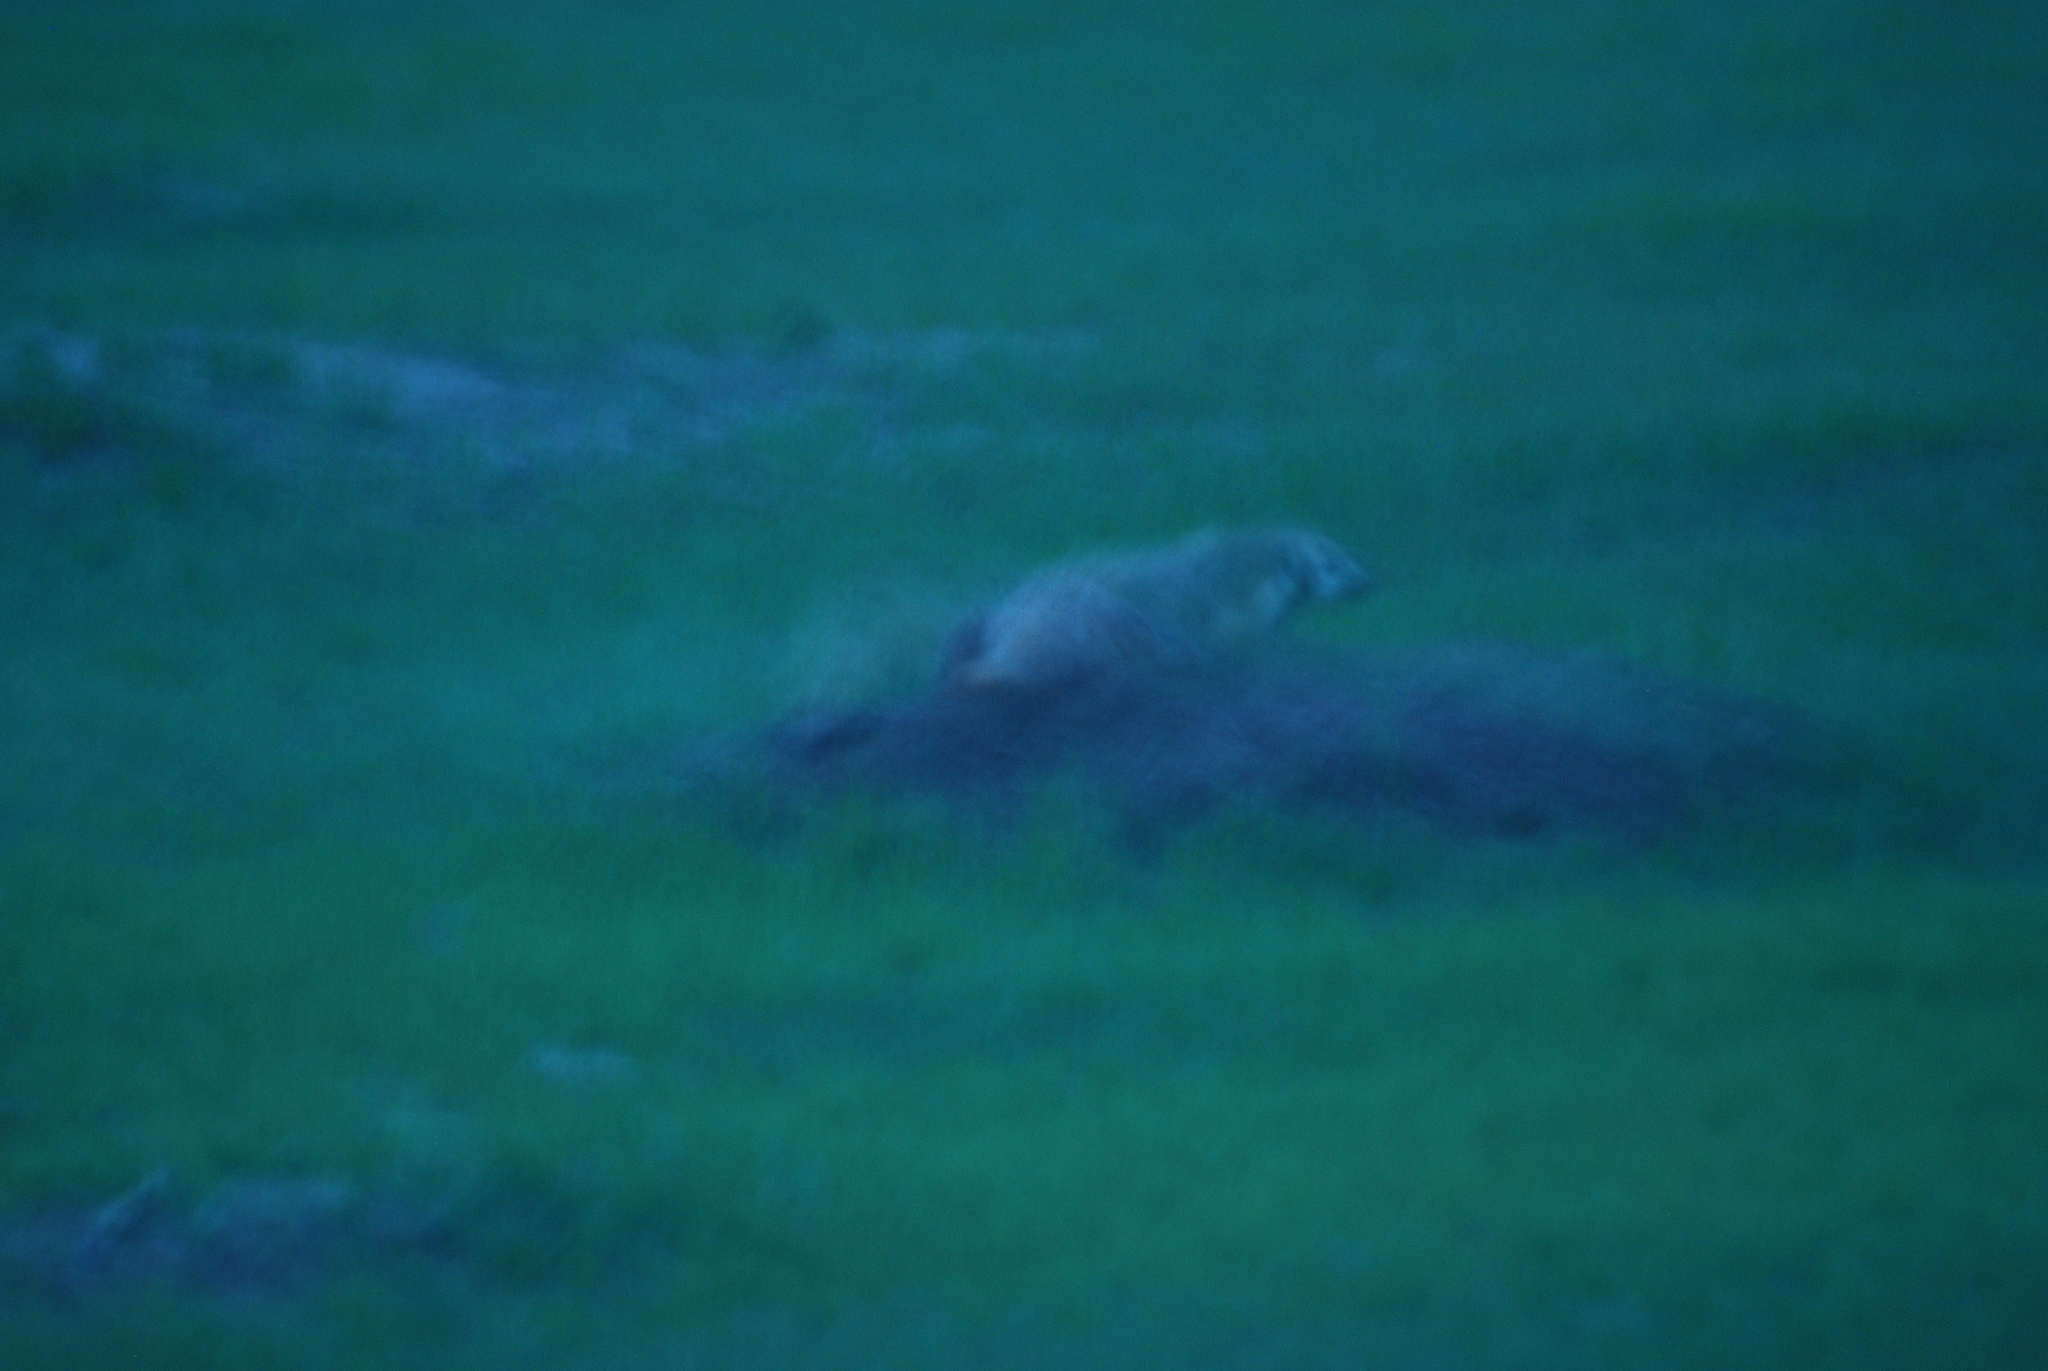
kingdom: Animalia
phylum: Chordata
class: Mammalia
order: Carnivora
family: Mustelidae
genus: Taxidea
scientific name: Taxidea taxus
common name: American badger
